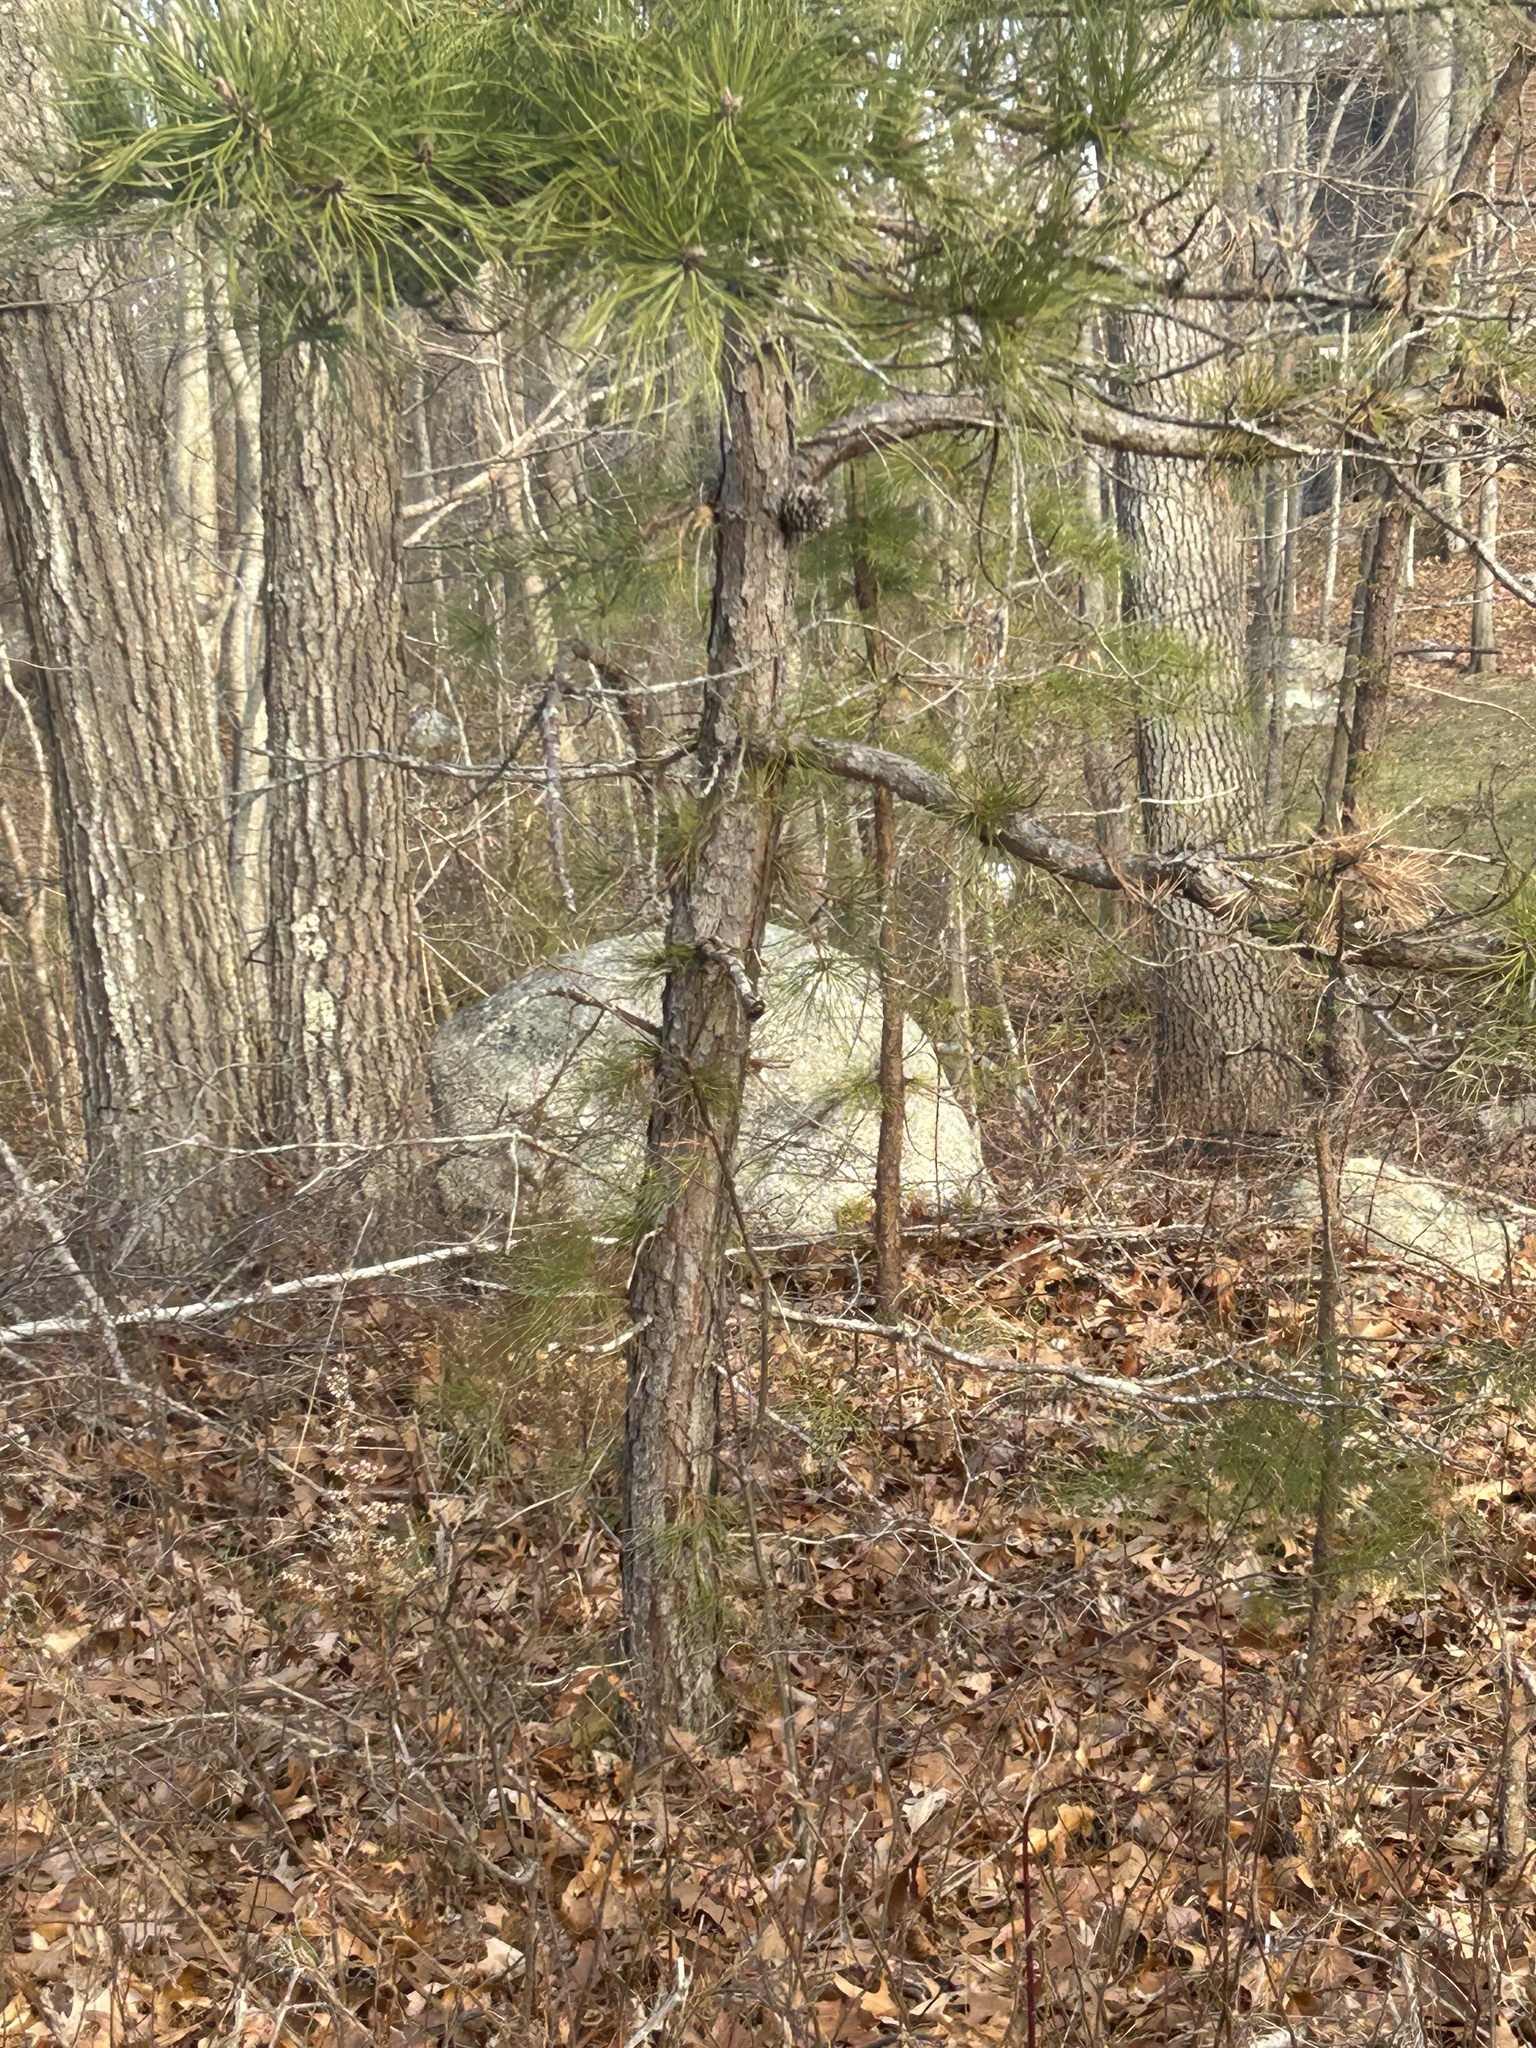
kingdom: Plantae
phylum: Tracheophyta
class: Pinopsida
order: Pinales
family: Pinaceae
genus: Pinus
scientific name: Pinus rigida
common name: Pitch pine
